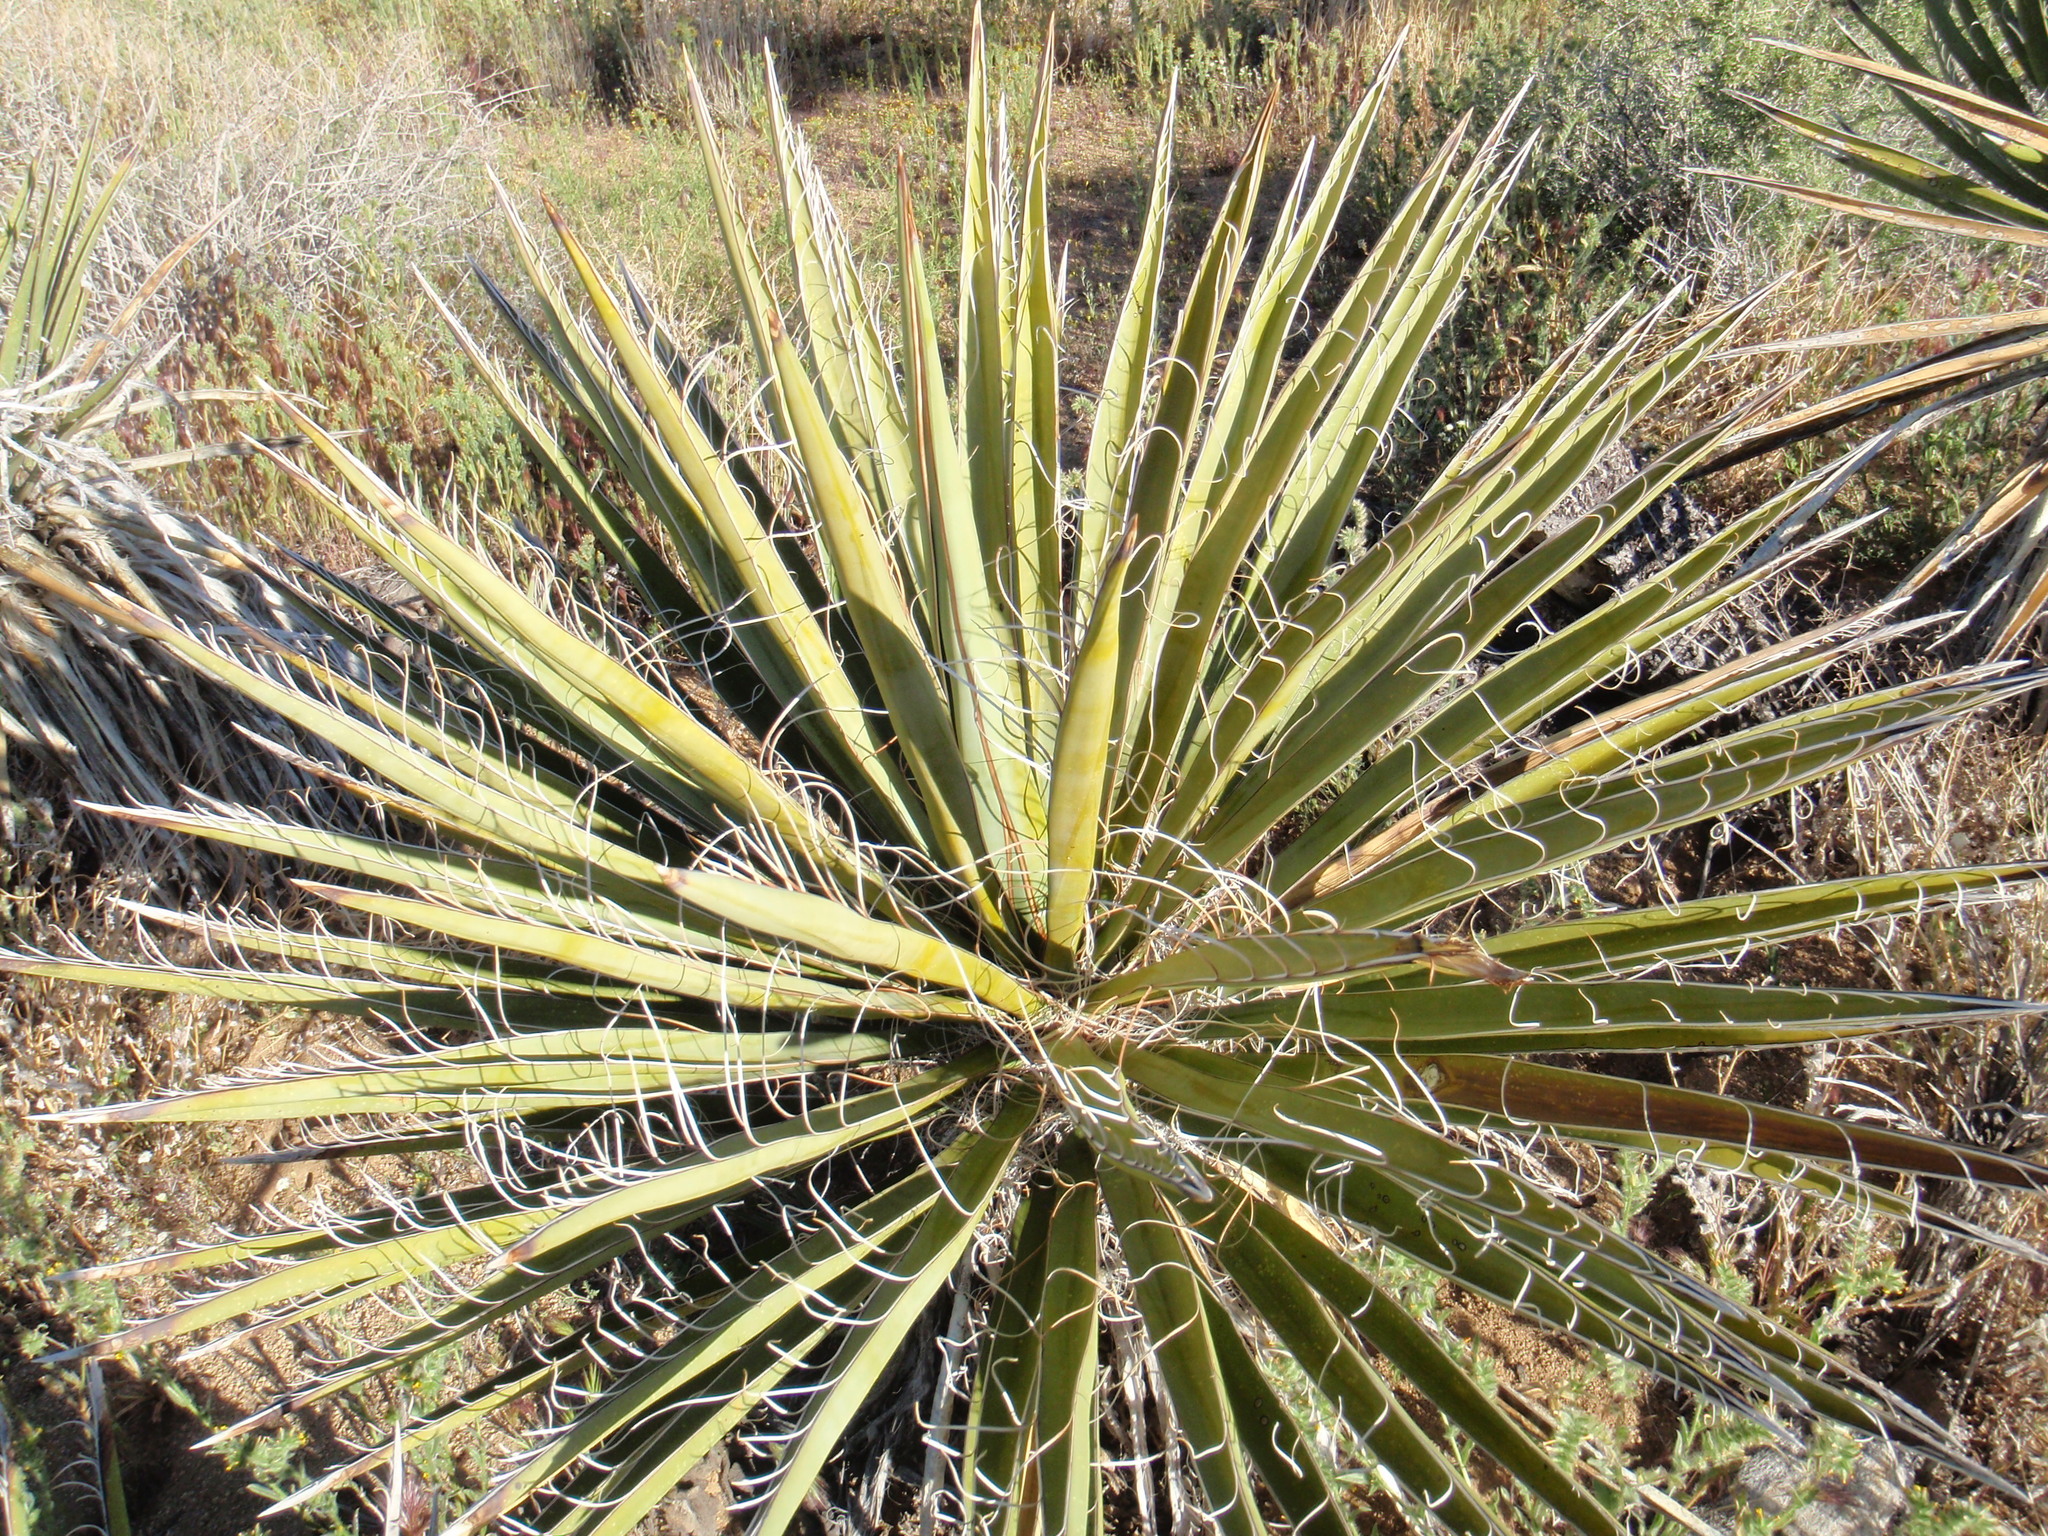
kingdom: Plantae
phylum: Tracheophyta
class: Liliopsida
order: Asparagales
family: Asparagaceae
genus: Yucca
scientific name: Yucca schidigera
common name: Mojave yucca
